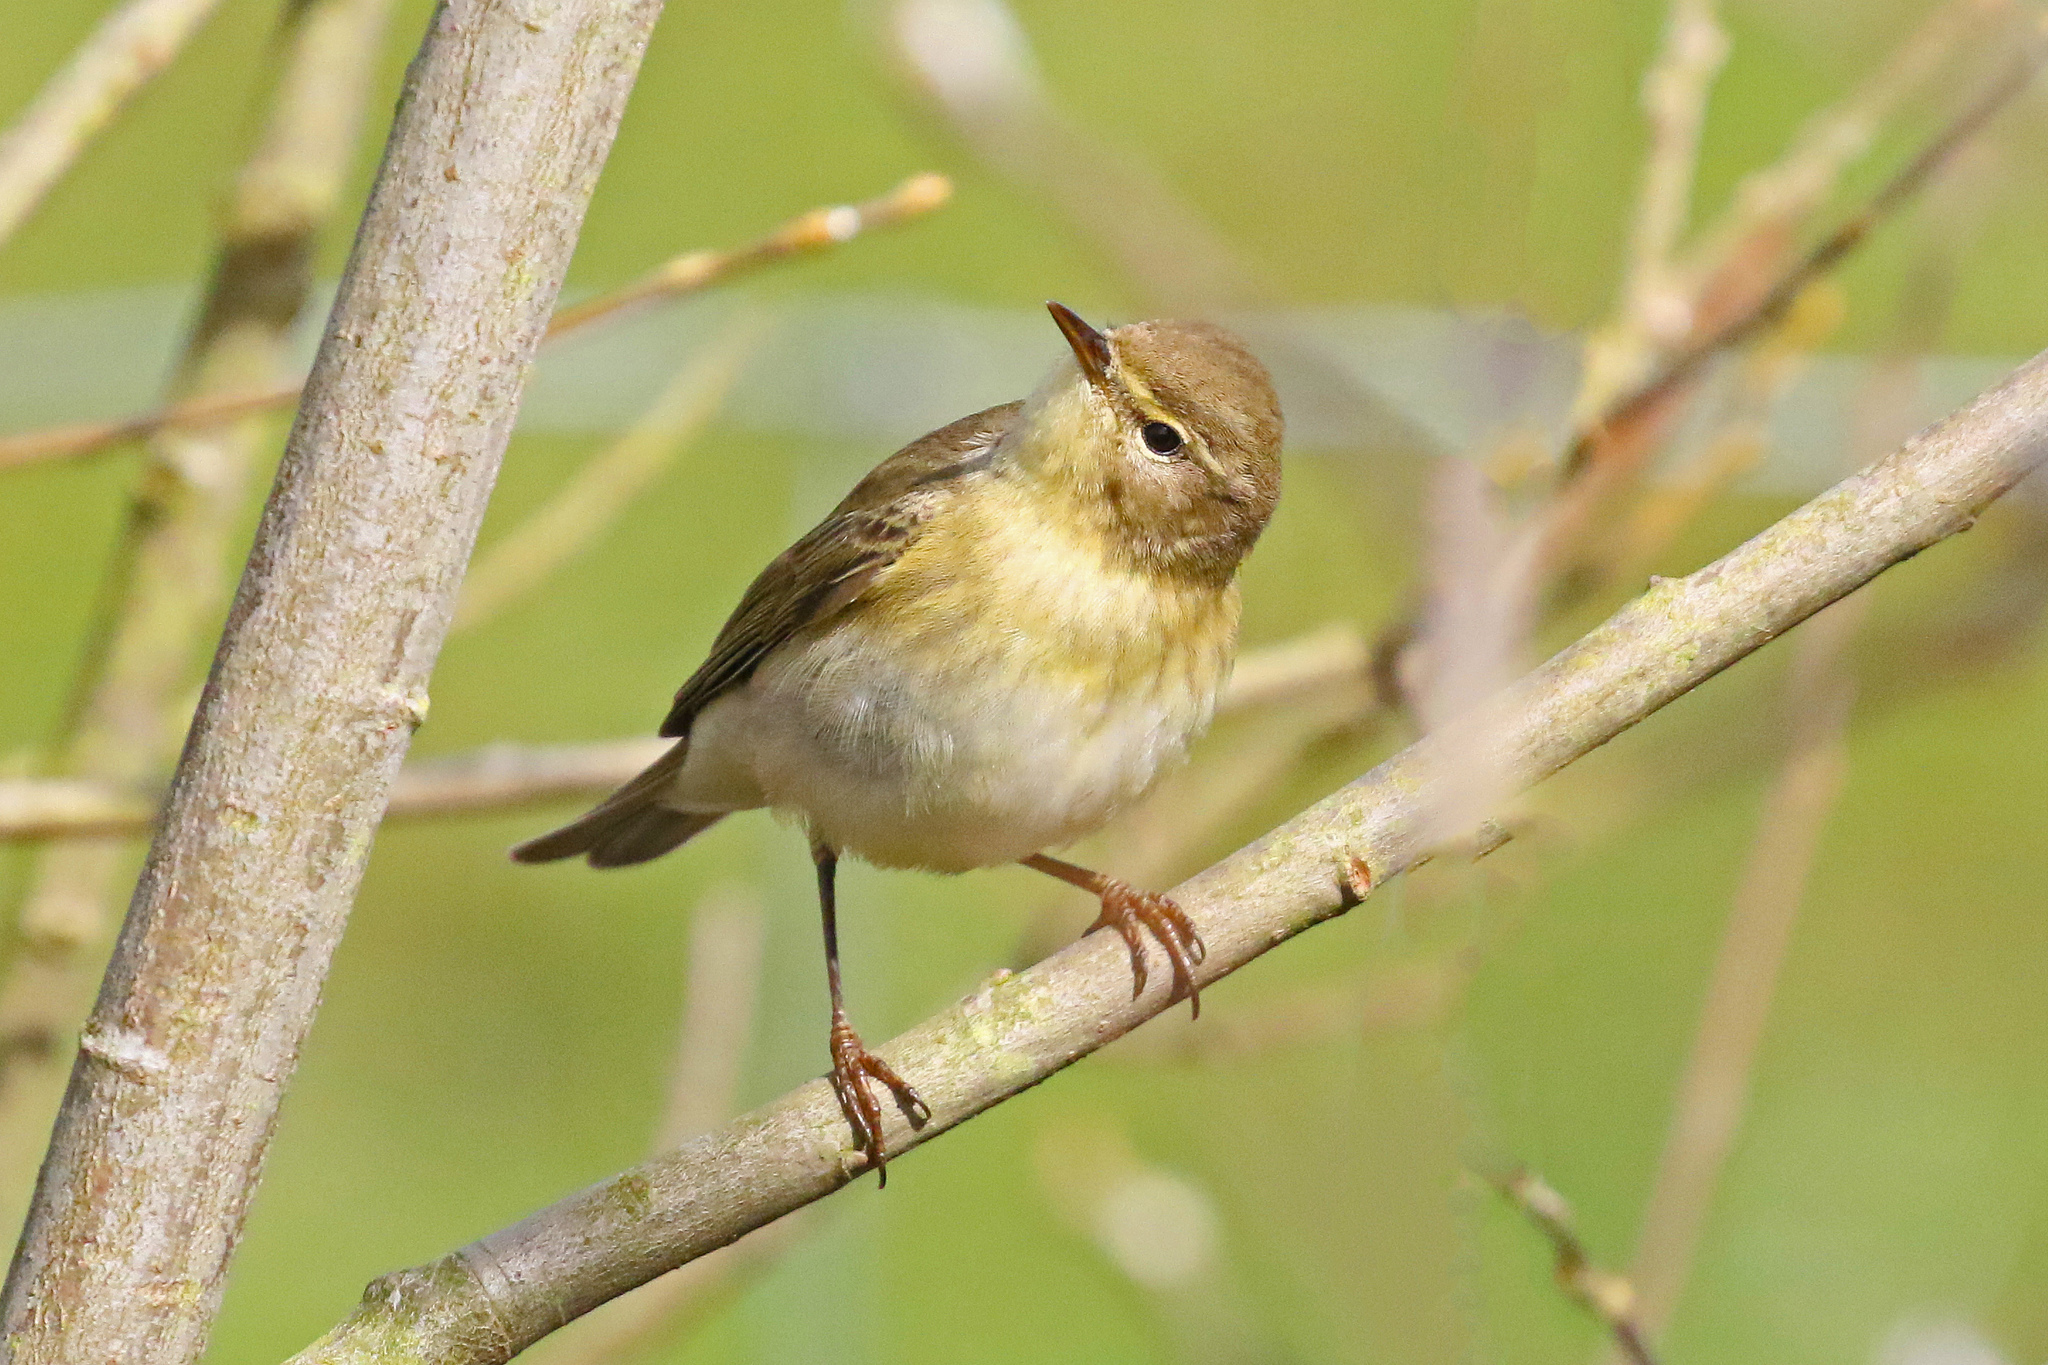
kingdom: Animalia
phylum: Chordata
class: Aves
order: Passeriformes
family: Phylloscopidae
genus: Phylloscopus
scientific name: Phylloscopus trochilus
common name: Willow warbler
